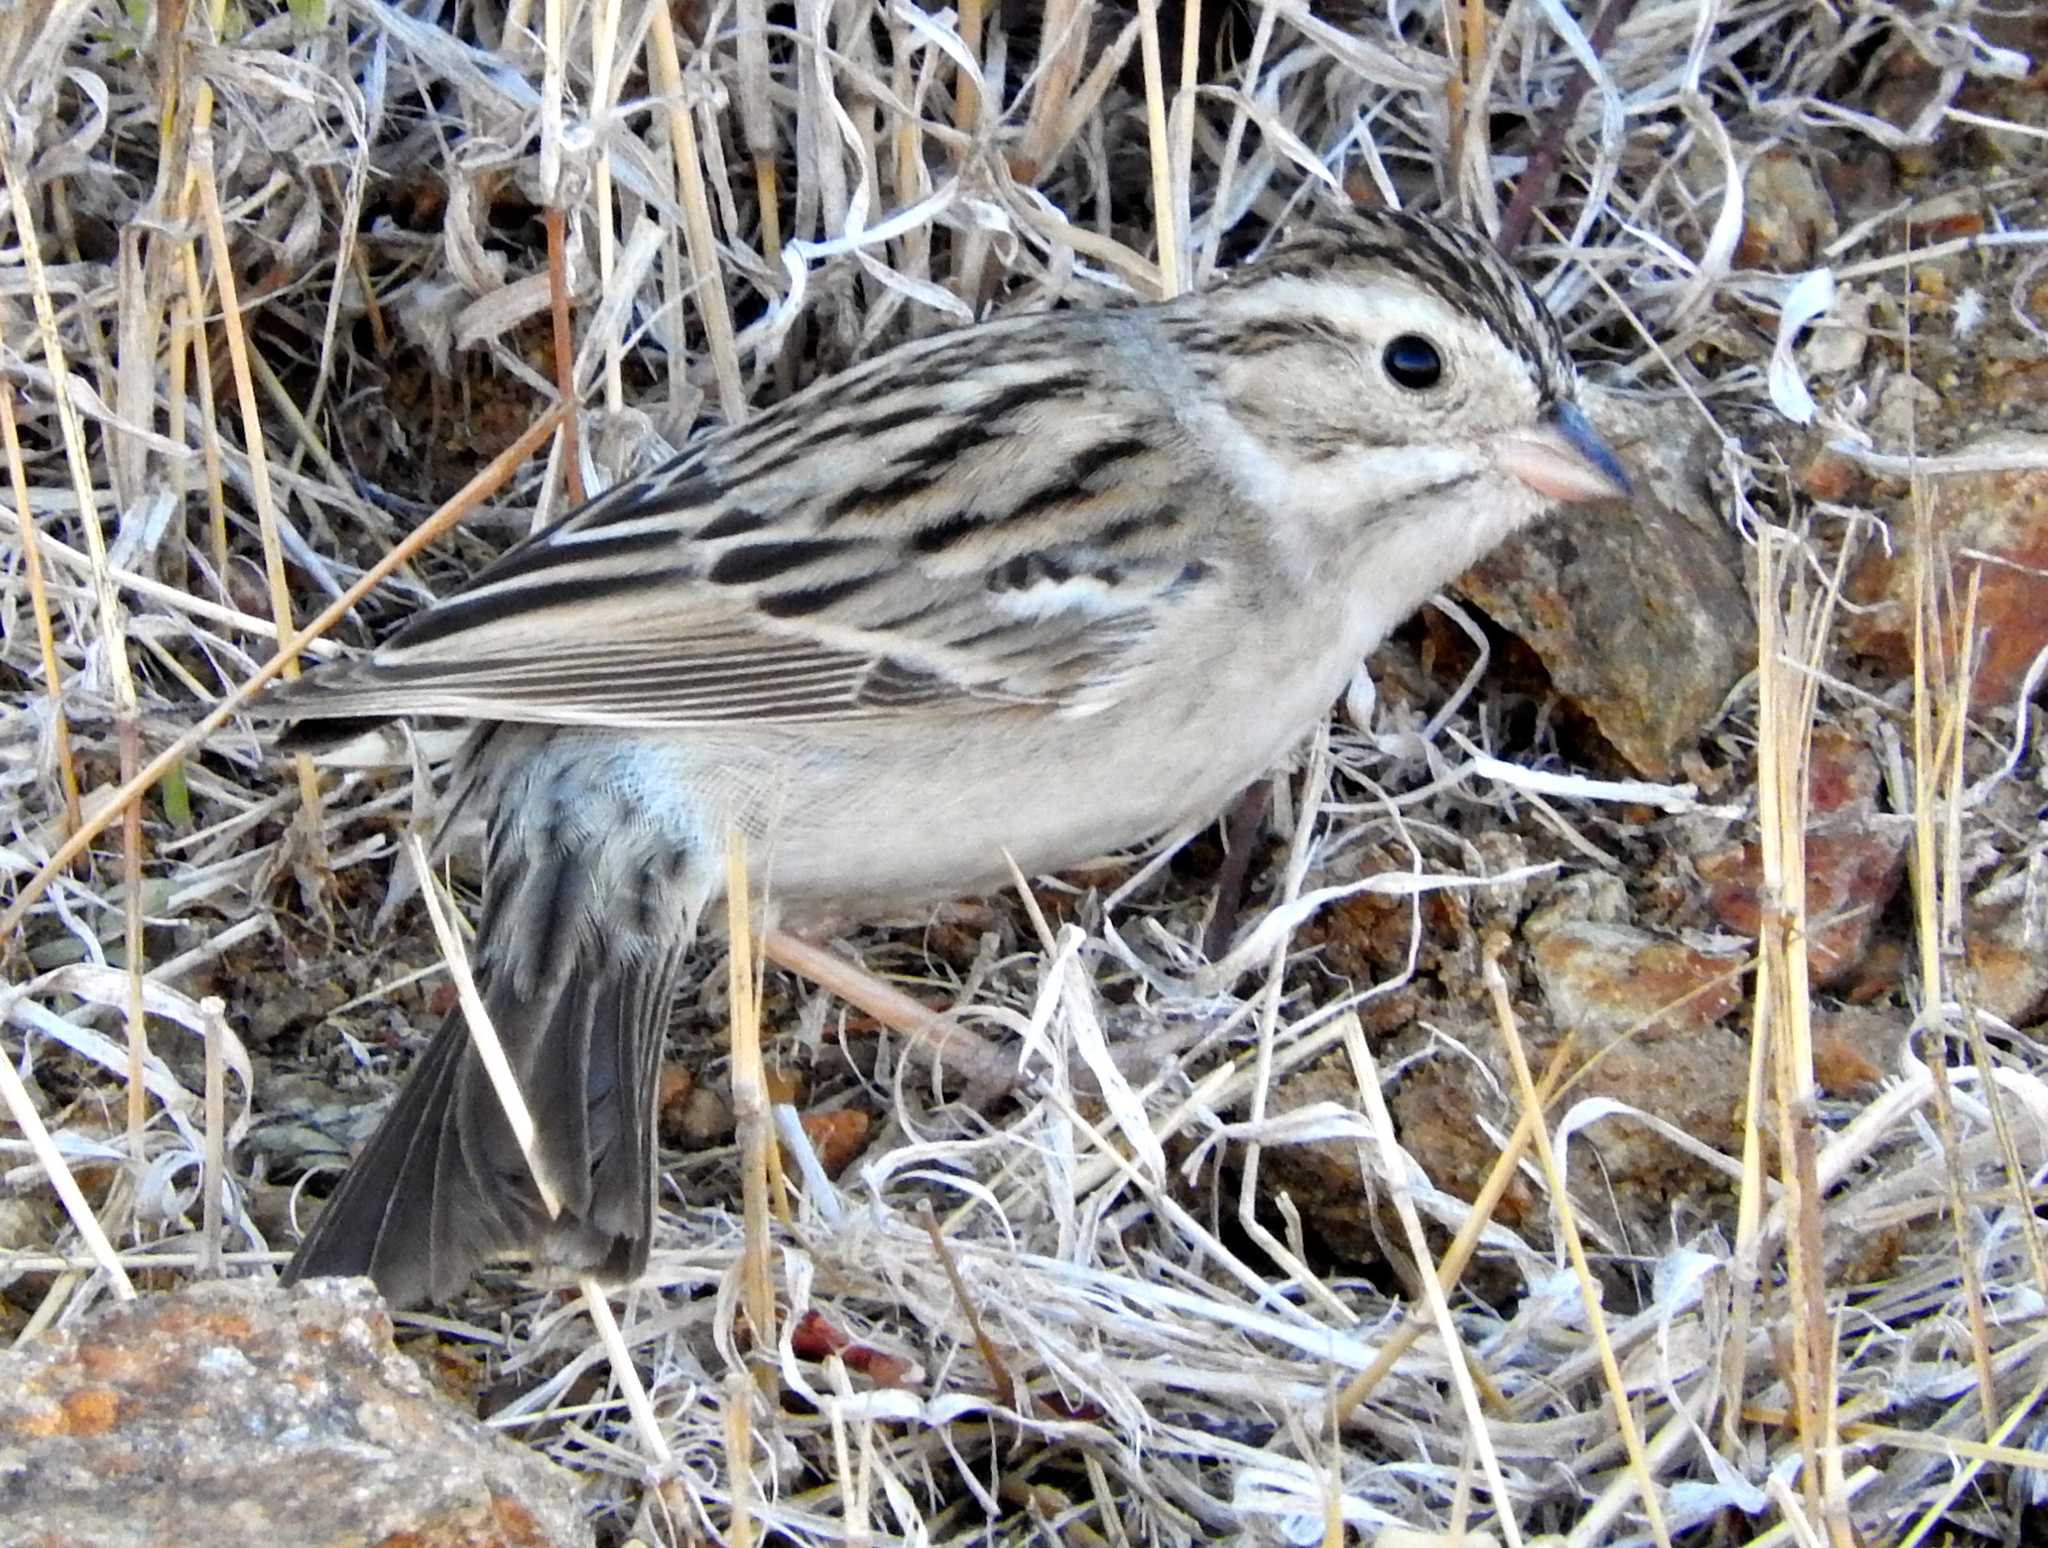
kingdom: Animalia
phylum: Chordata
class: Aves
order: Passeriformes
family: Passerellidae
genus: Spizella
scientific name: Spizella pallida
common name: Clay-colored sparrow
